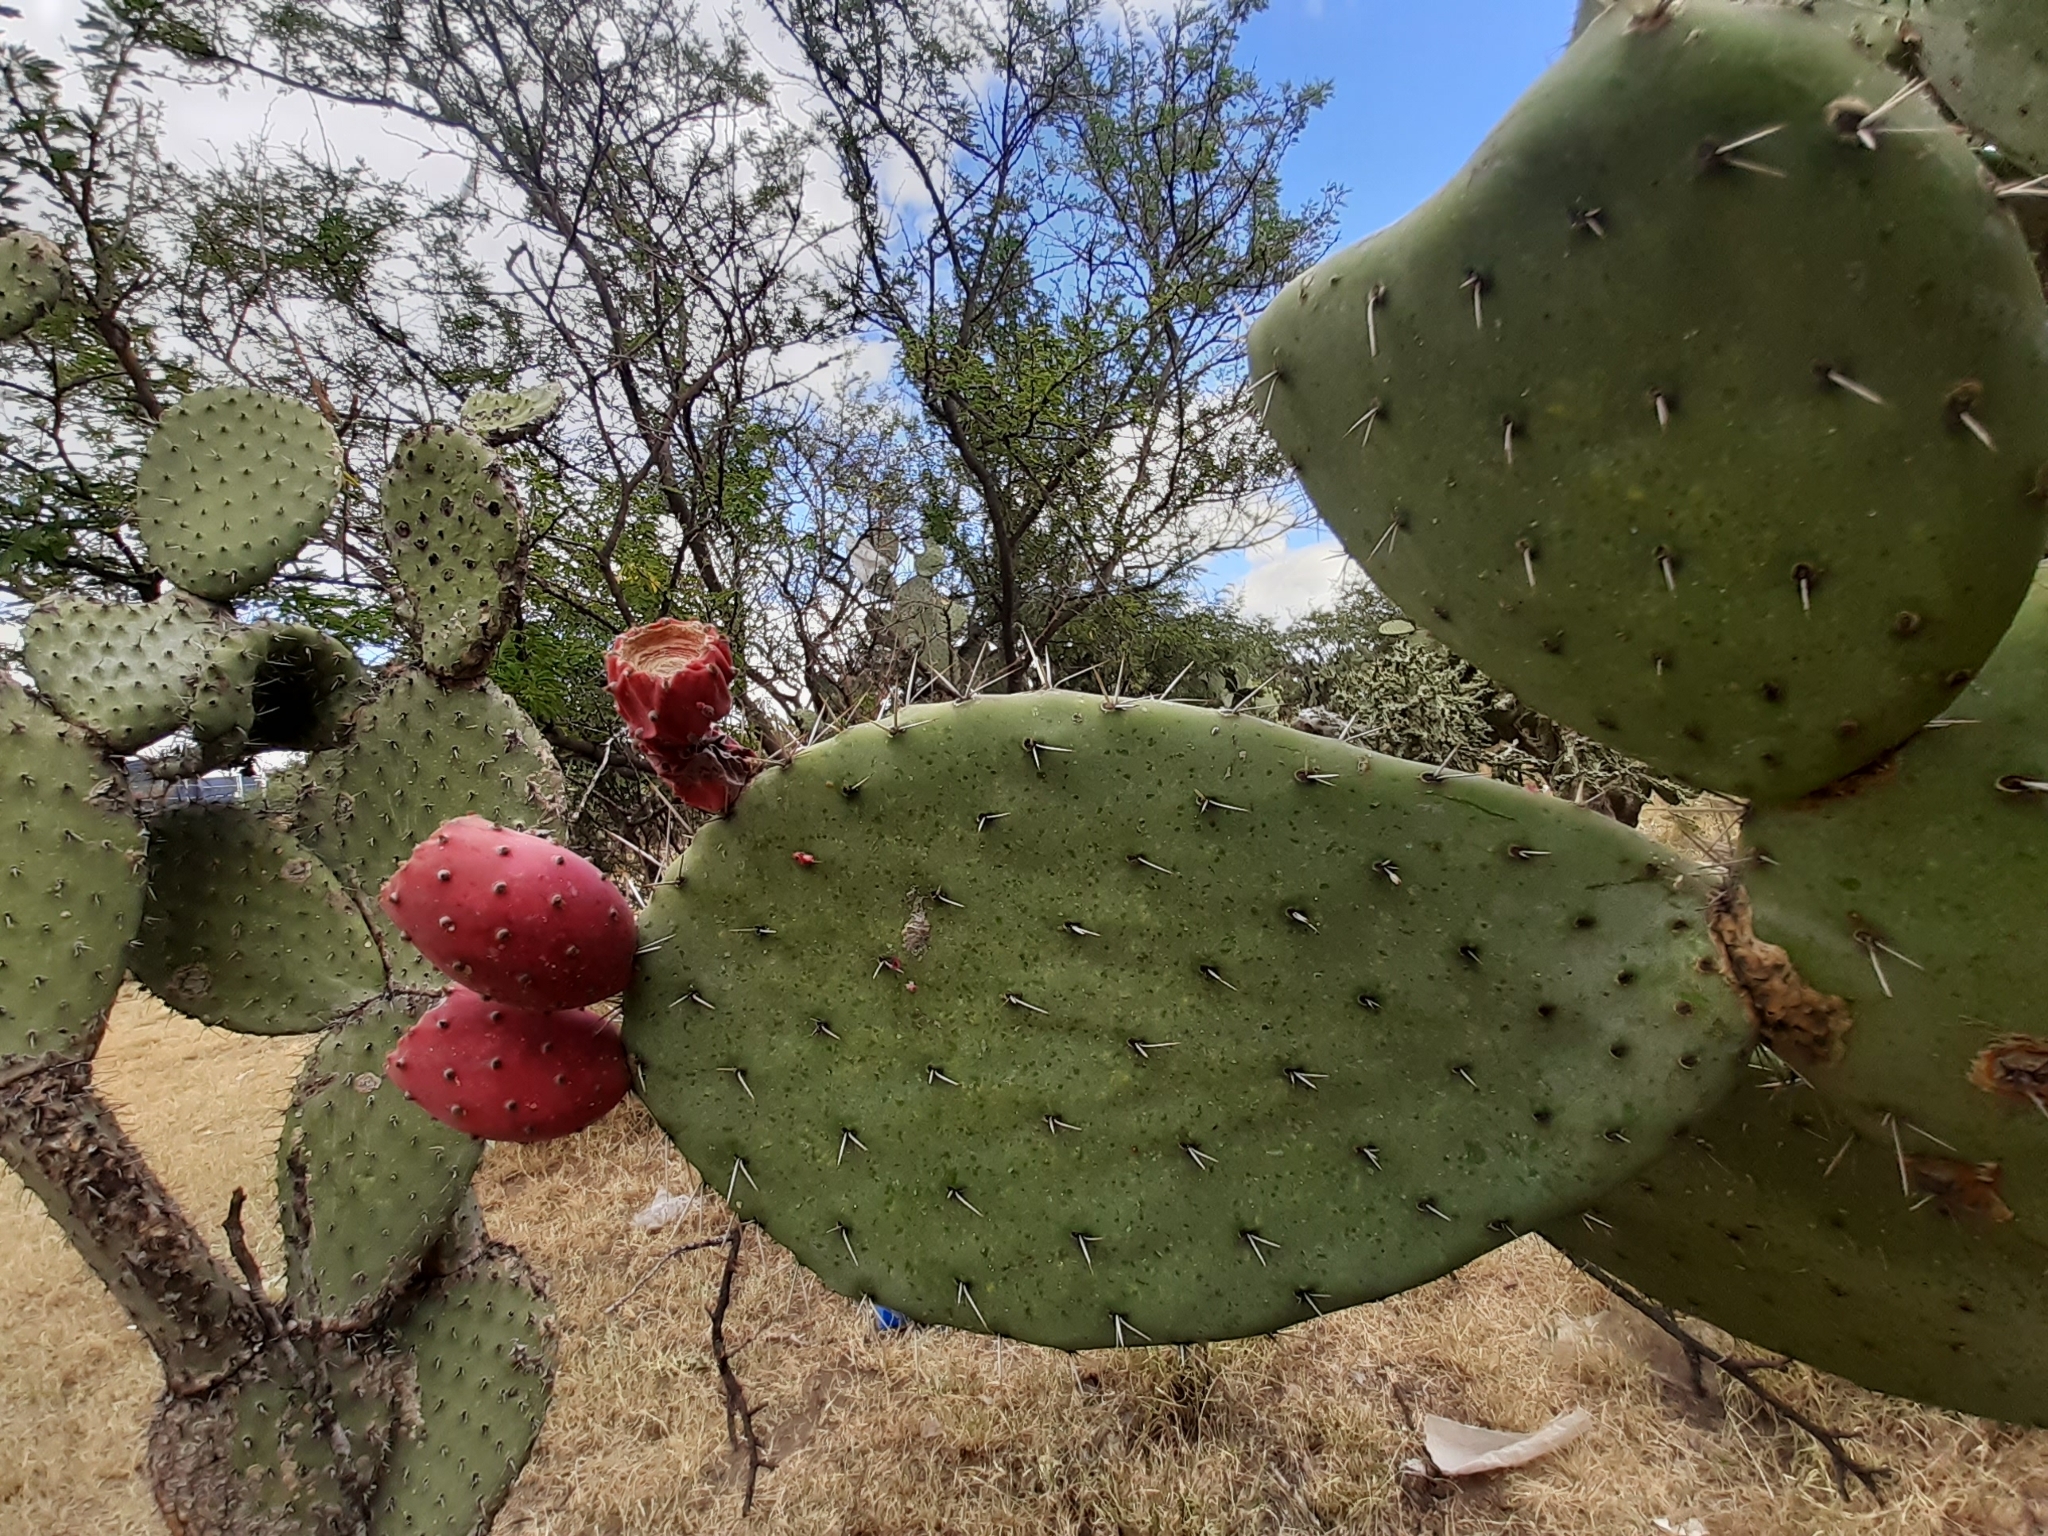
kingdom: Plantae
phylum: Tracheophyta
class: Magnoliopsida
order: Caryophyllales
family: Cactaceae
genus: Opuntia
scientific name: Opuntia streptacantha
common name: Gracemere-pear
